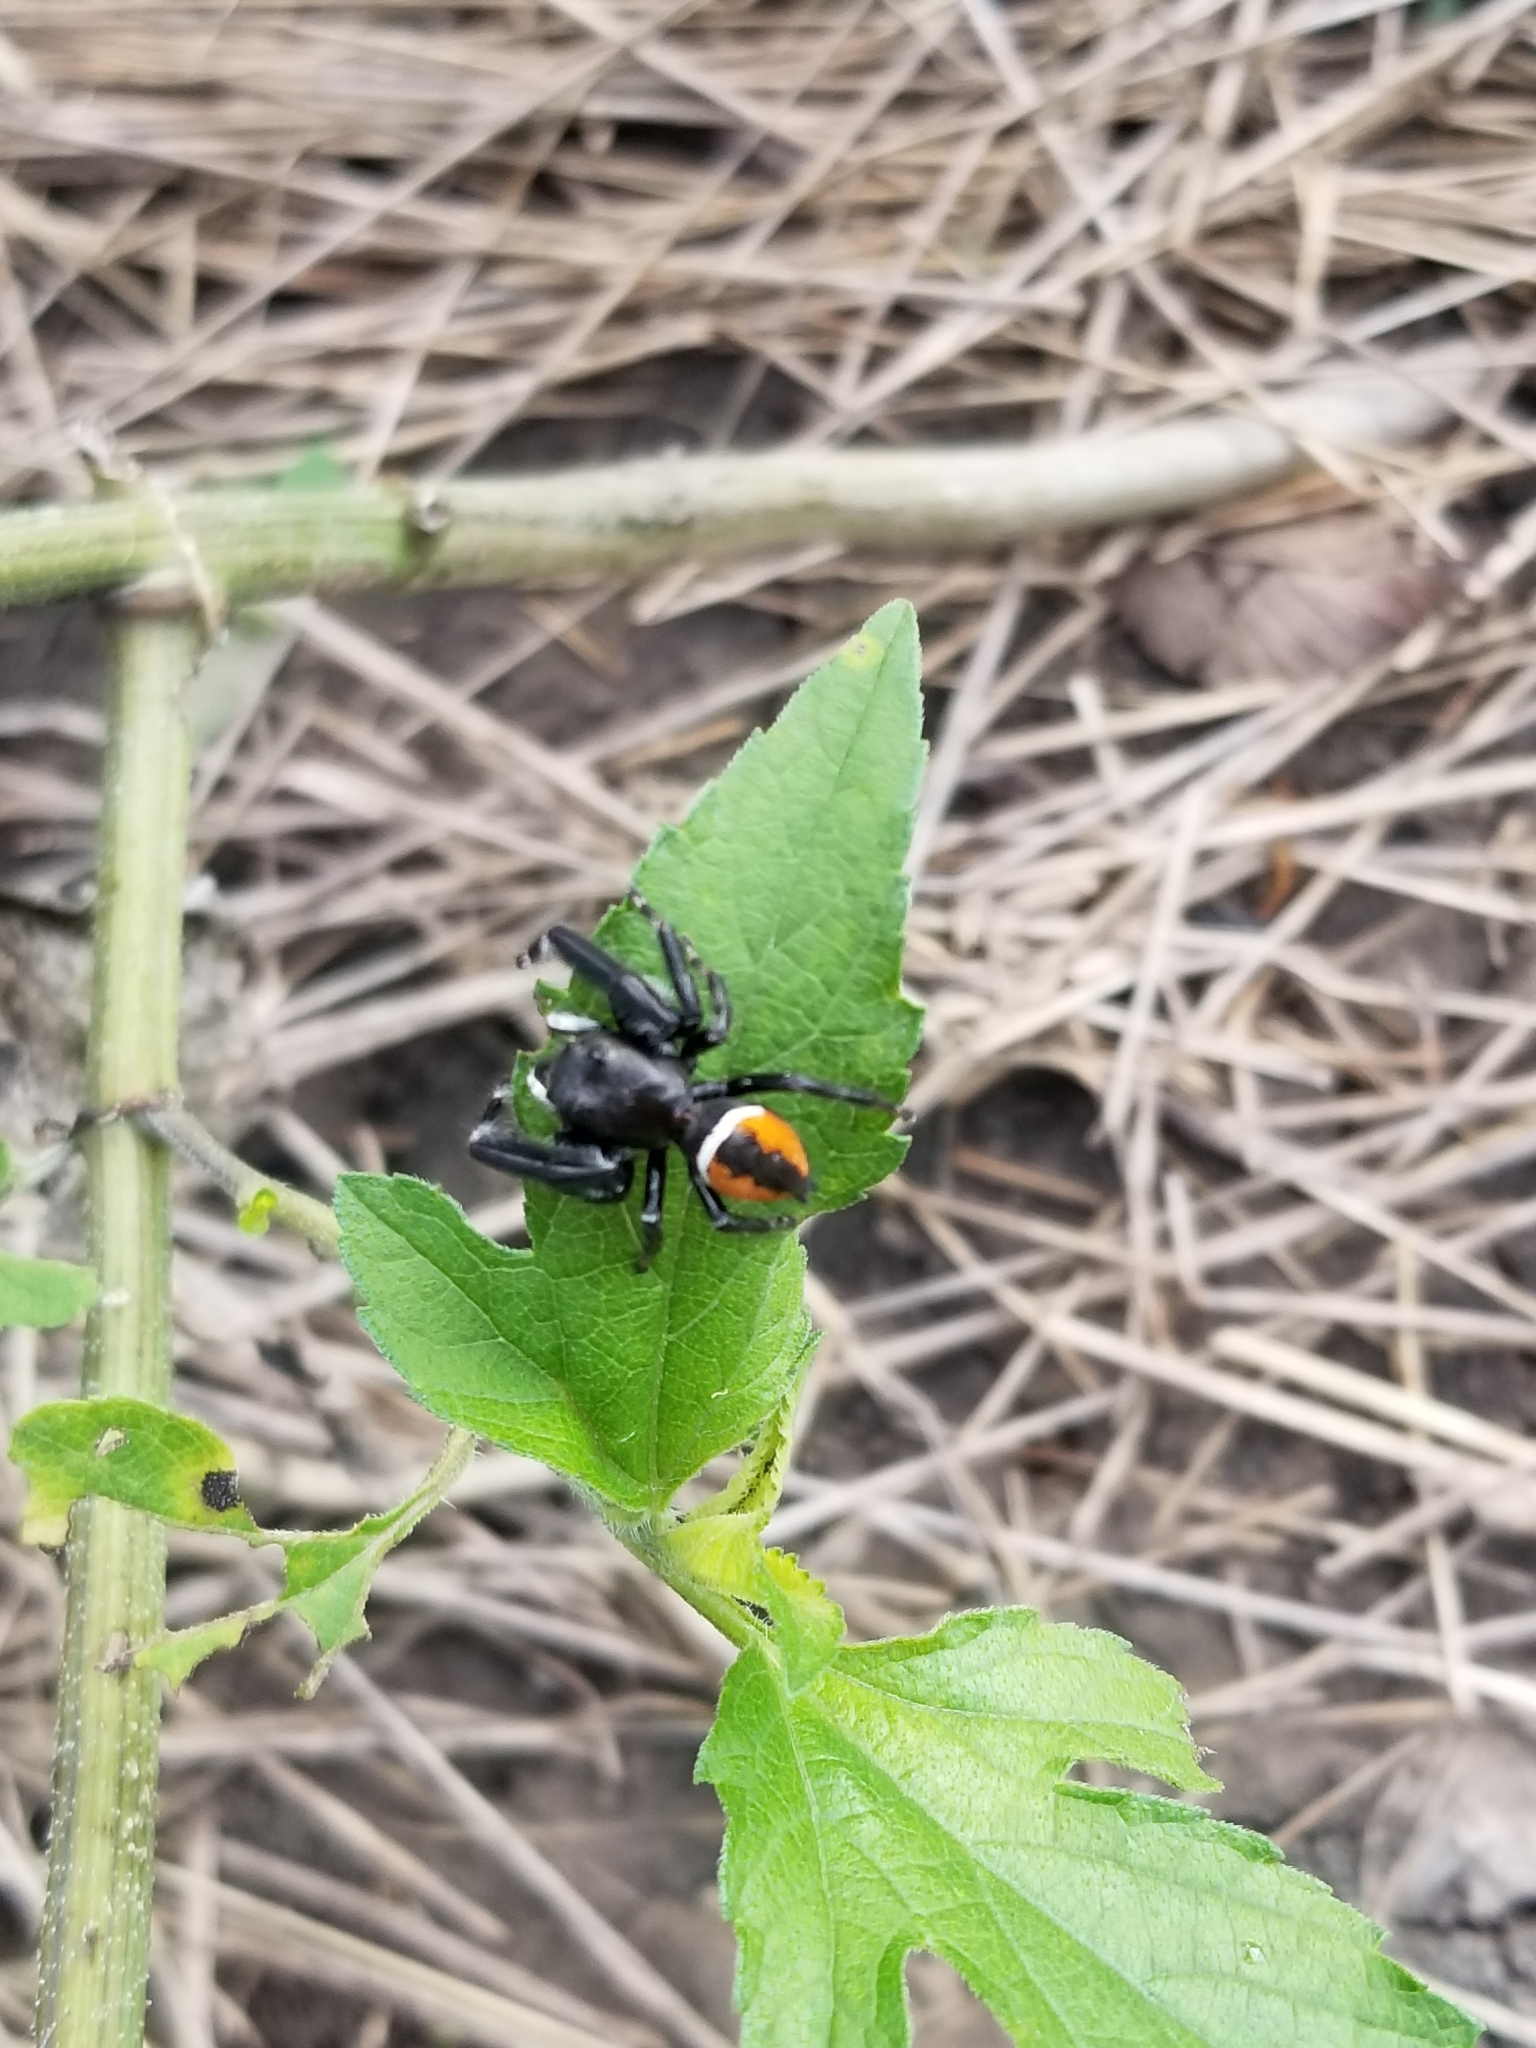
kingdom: Animalia
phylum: Arthropoda
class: Arachnida
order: Araneae
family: Salticidae
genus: Phidippus
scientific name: Phidippus clarus
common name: Brilliant jumping spider
